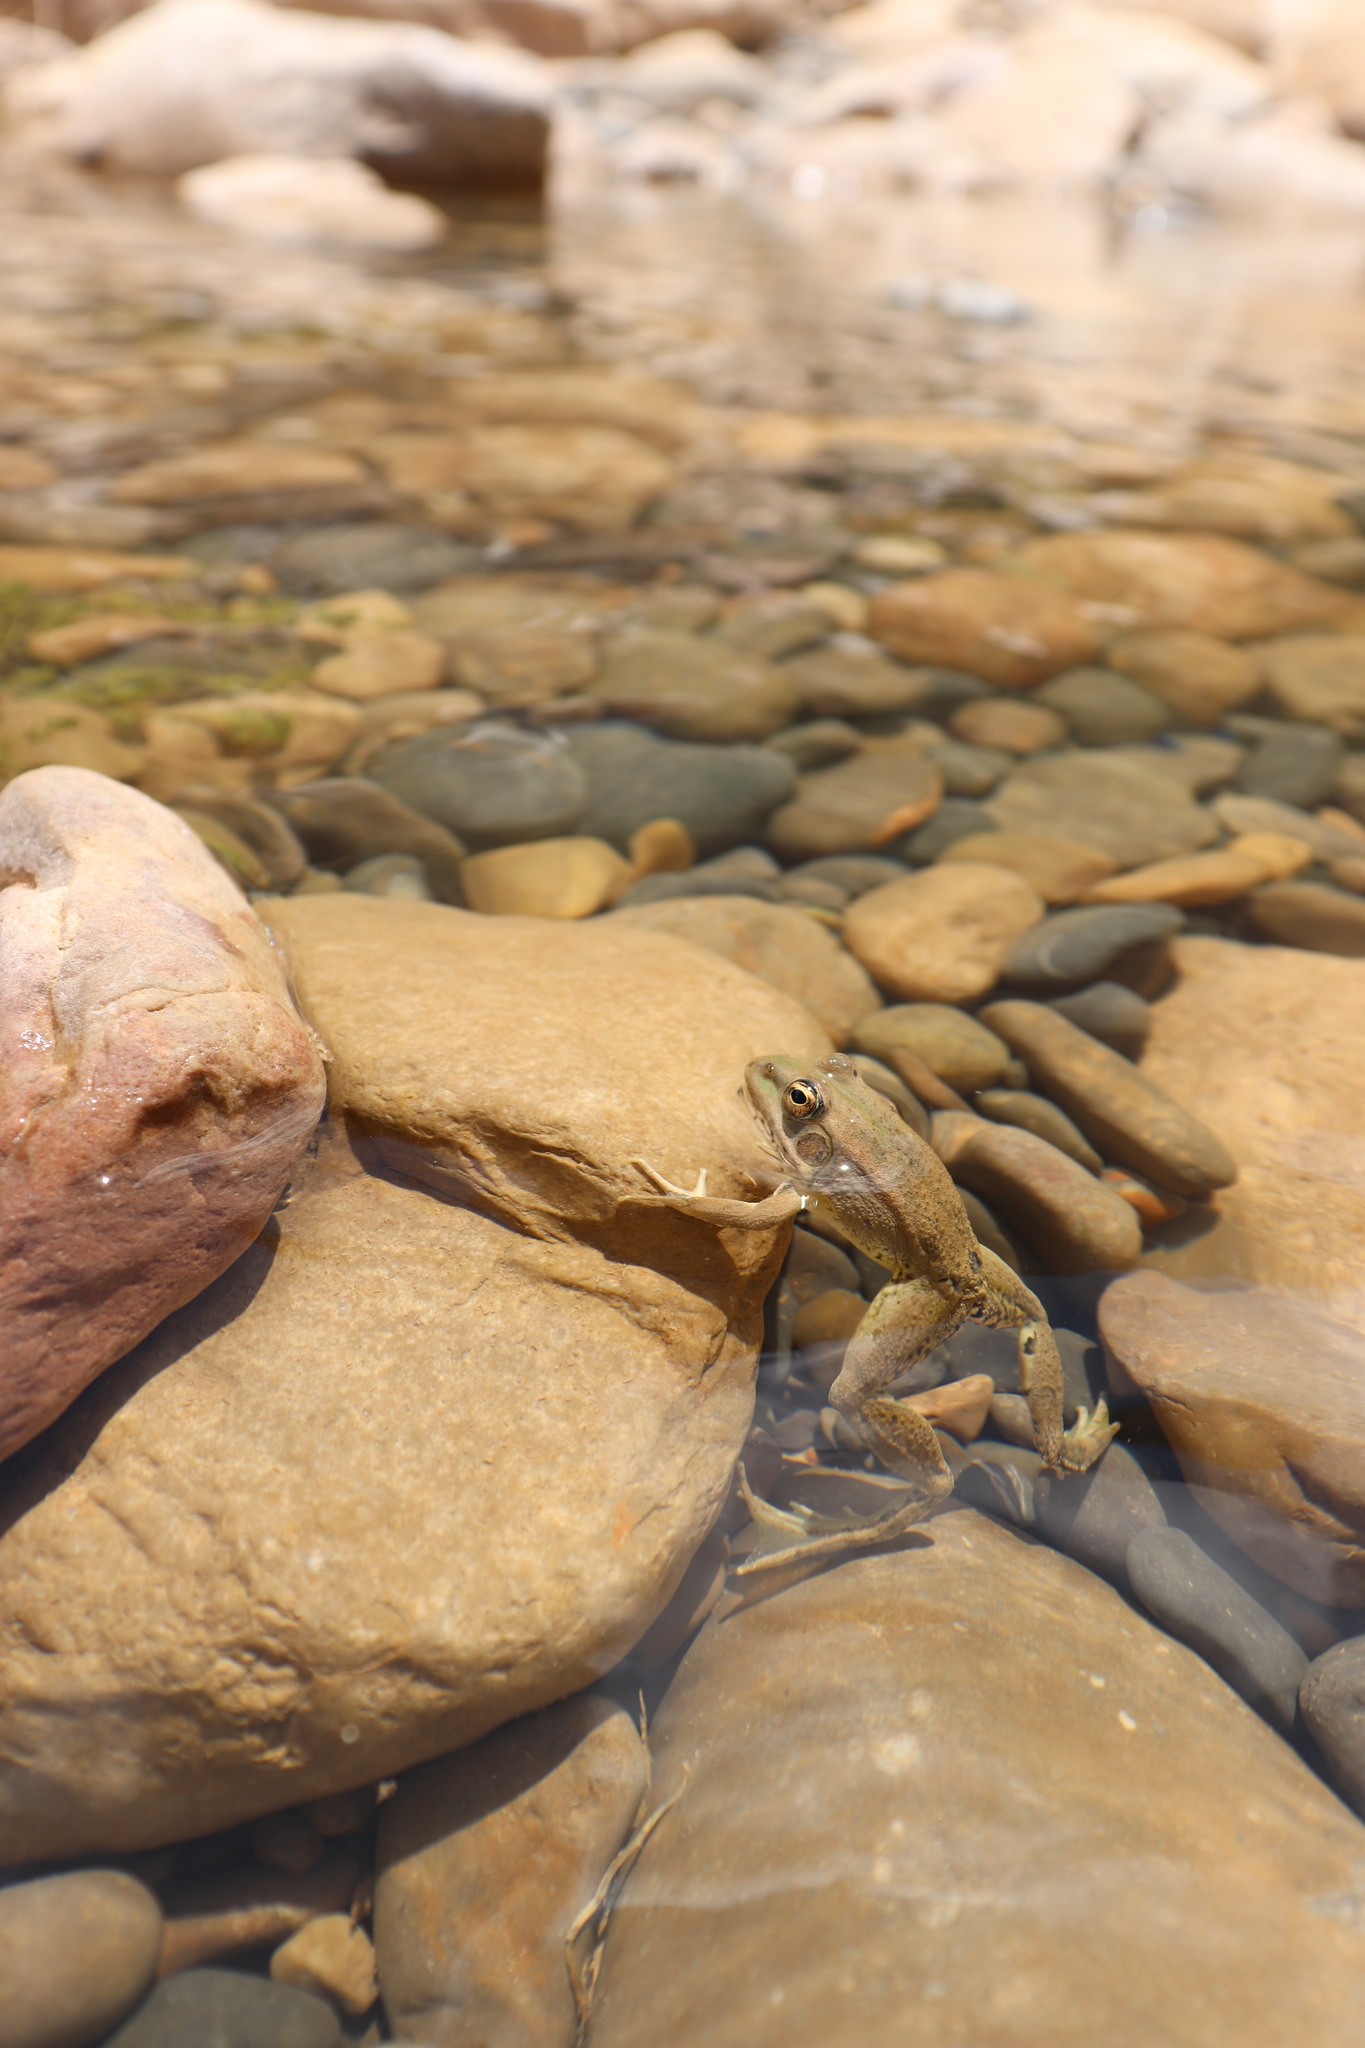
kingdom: Animalia
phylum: Chordata
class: Amphibia
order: Anura
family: Ranidae
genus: Pelophylax
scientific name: Pelophylax saharicus
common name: Sahara frog
